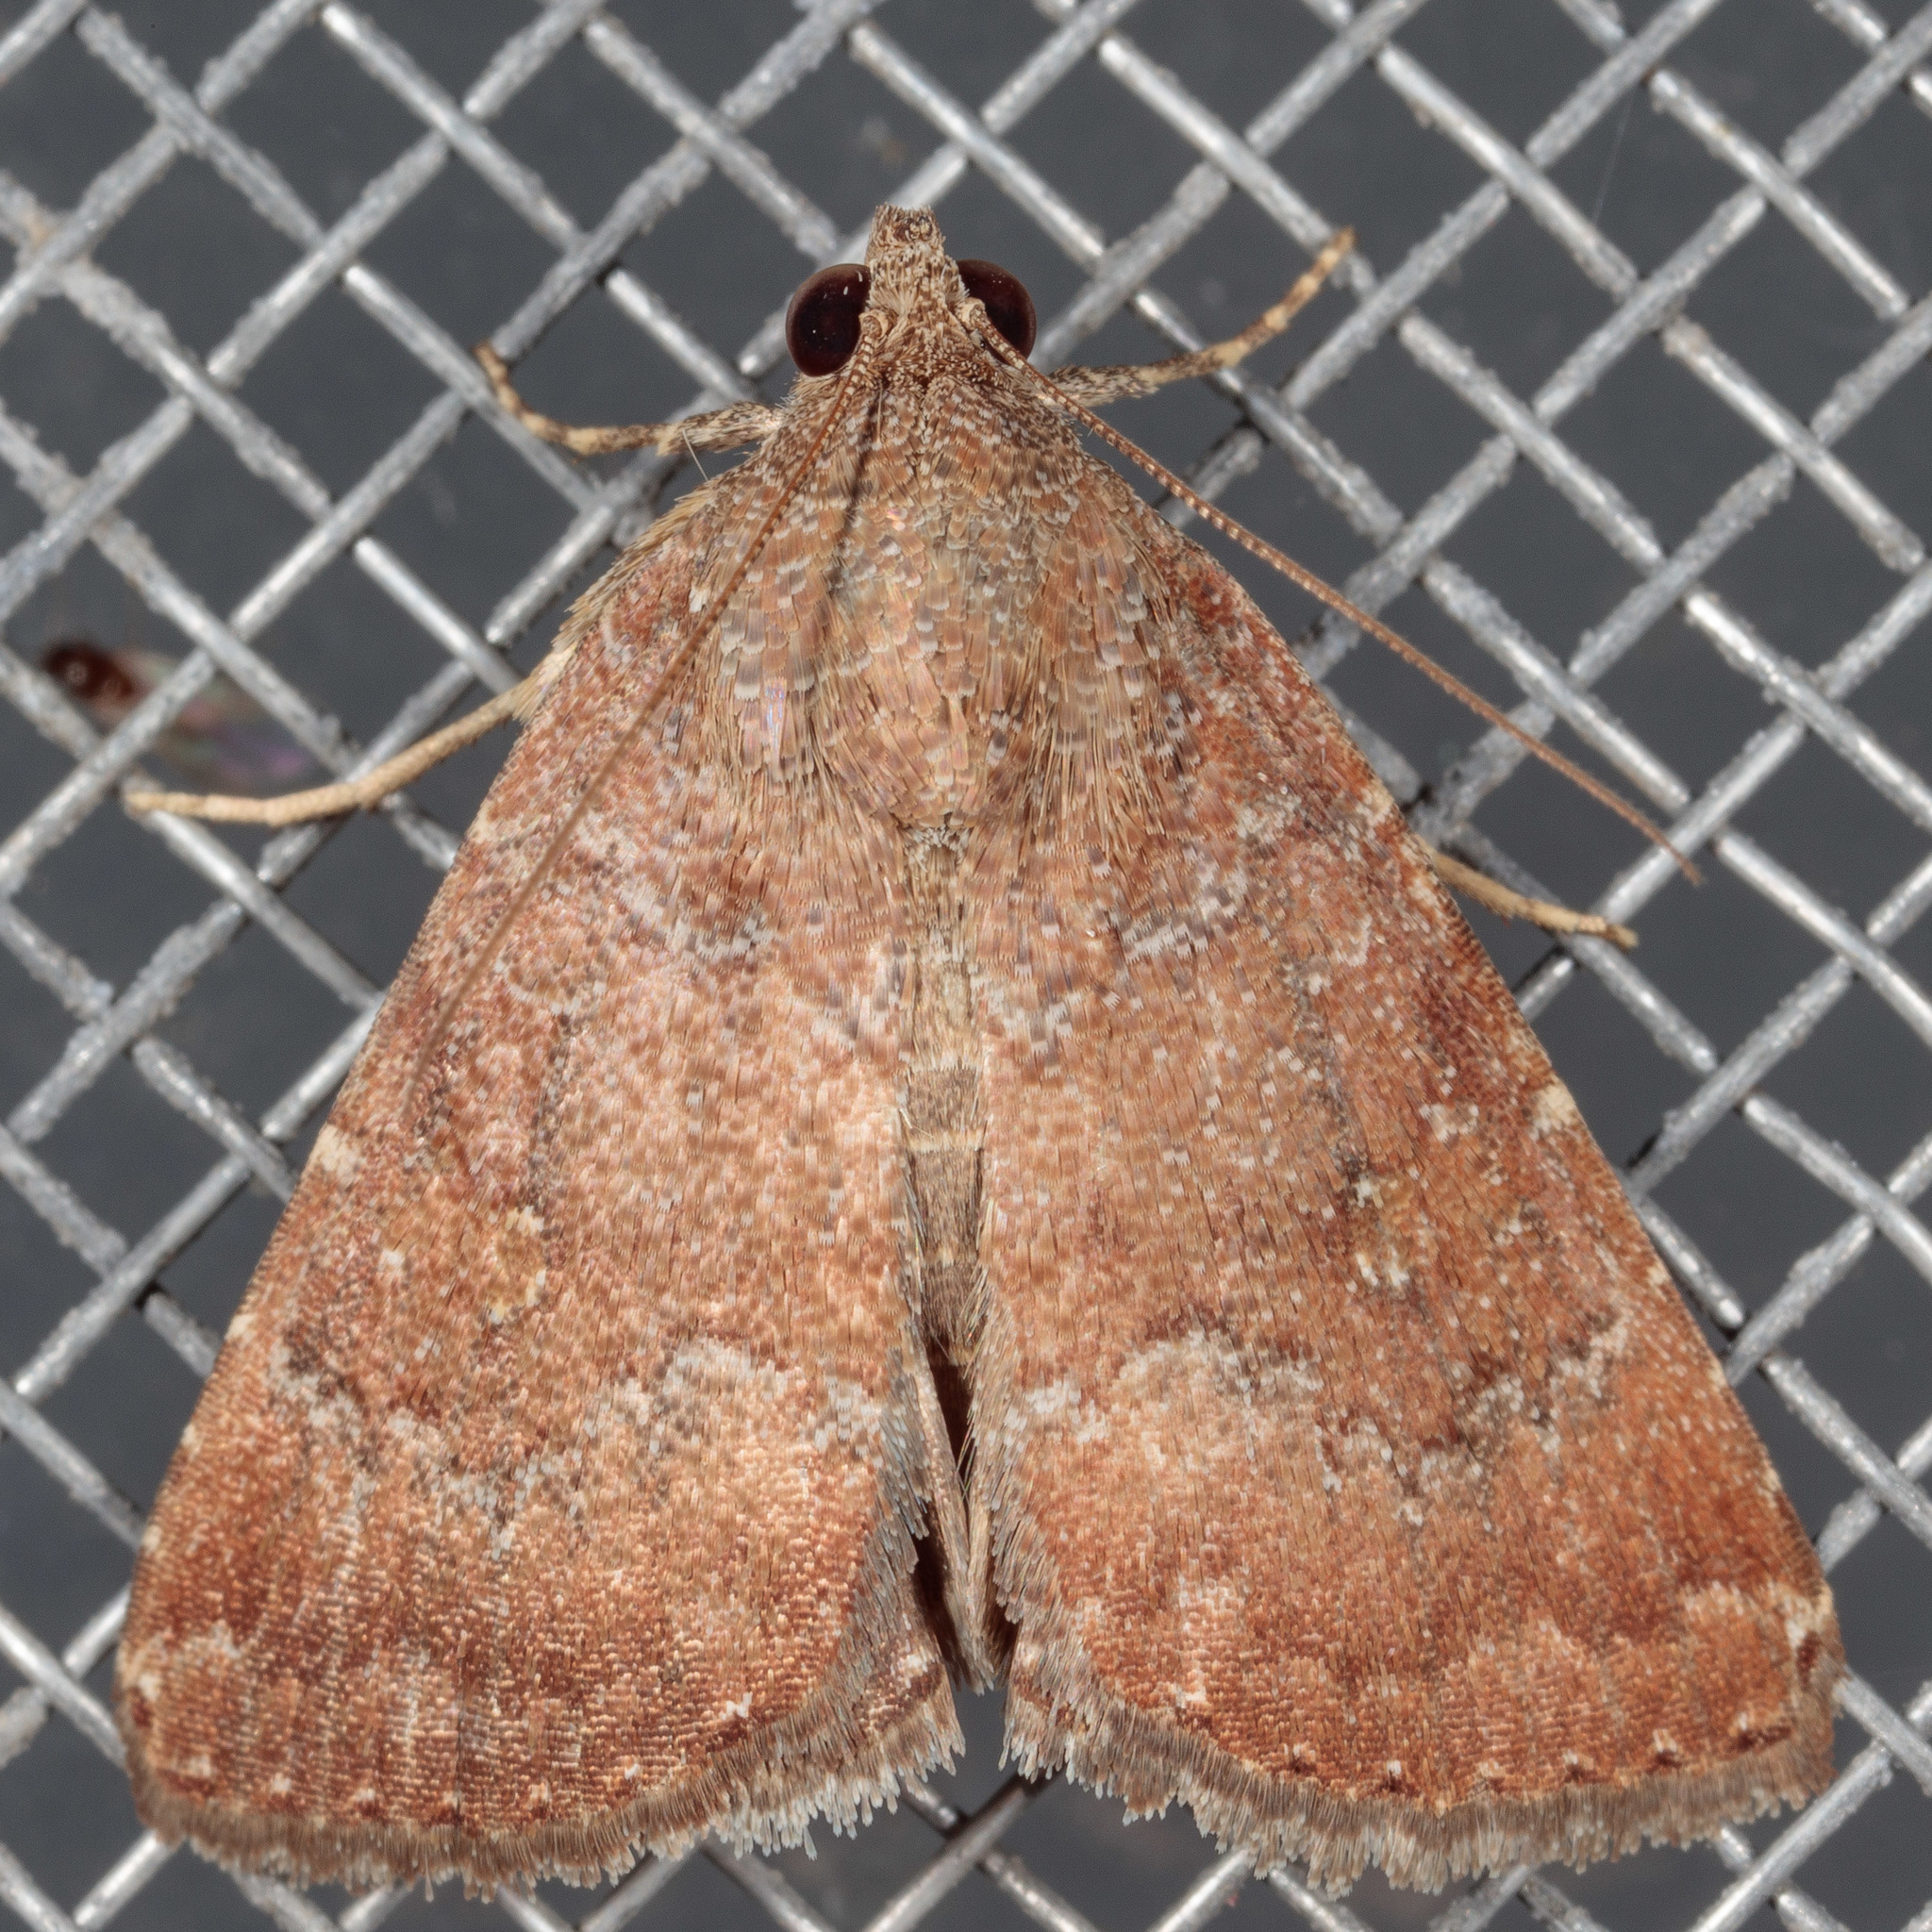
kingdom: Animalia
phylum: Arthropoda
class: Insecta
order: Lepidoptera
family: Noctuidae
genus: Amyna
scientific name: Amyna stricta
